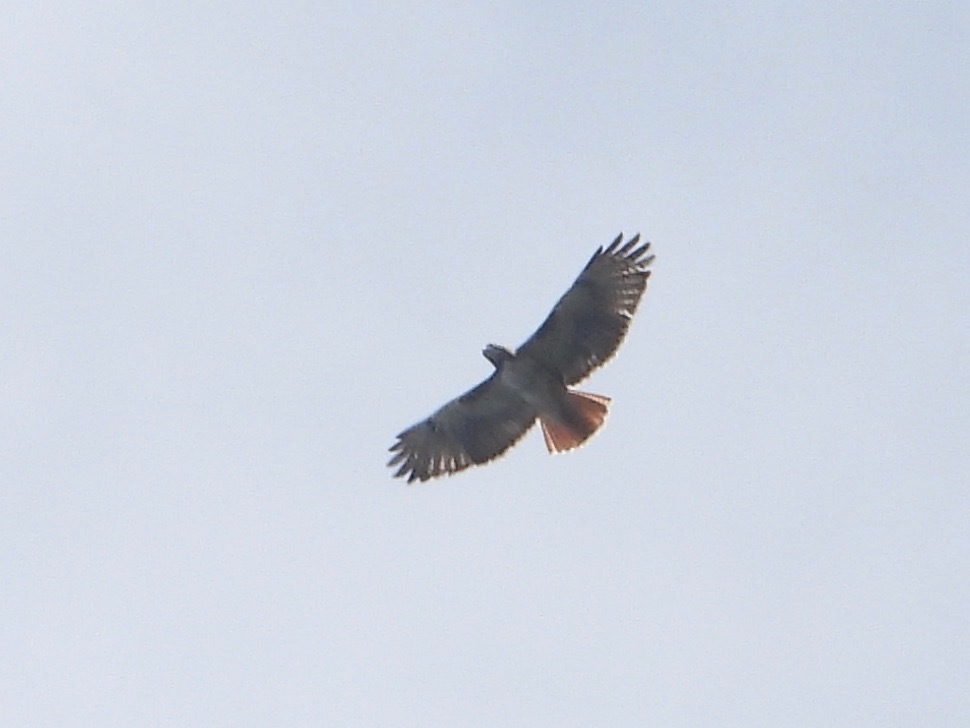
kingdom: Animalia
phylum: Chordata
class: Aves
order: Accipitriformes
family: Accipitridae
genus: Buteo
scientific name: Buteo jamaicensis
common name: Red-tailed hawk
